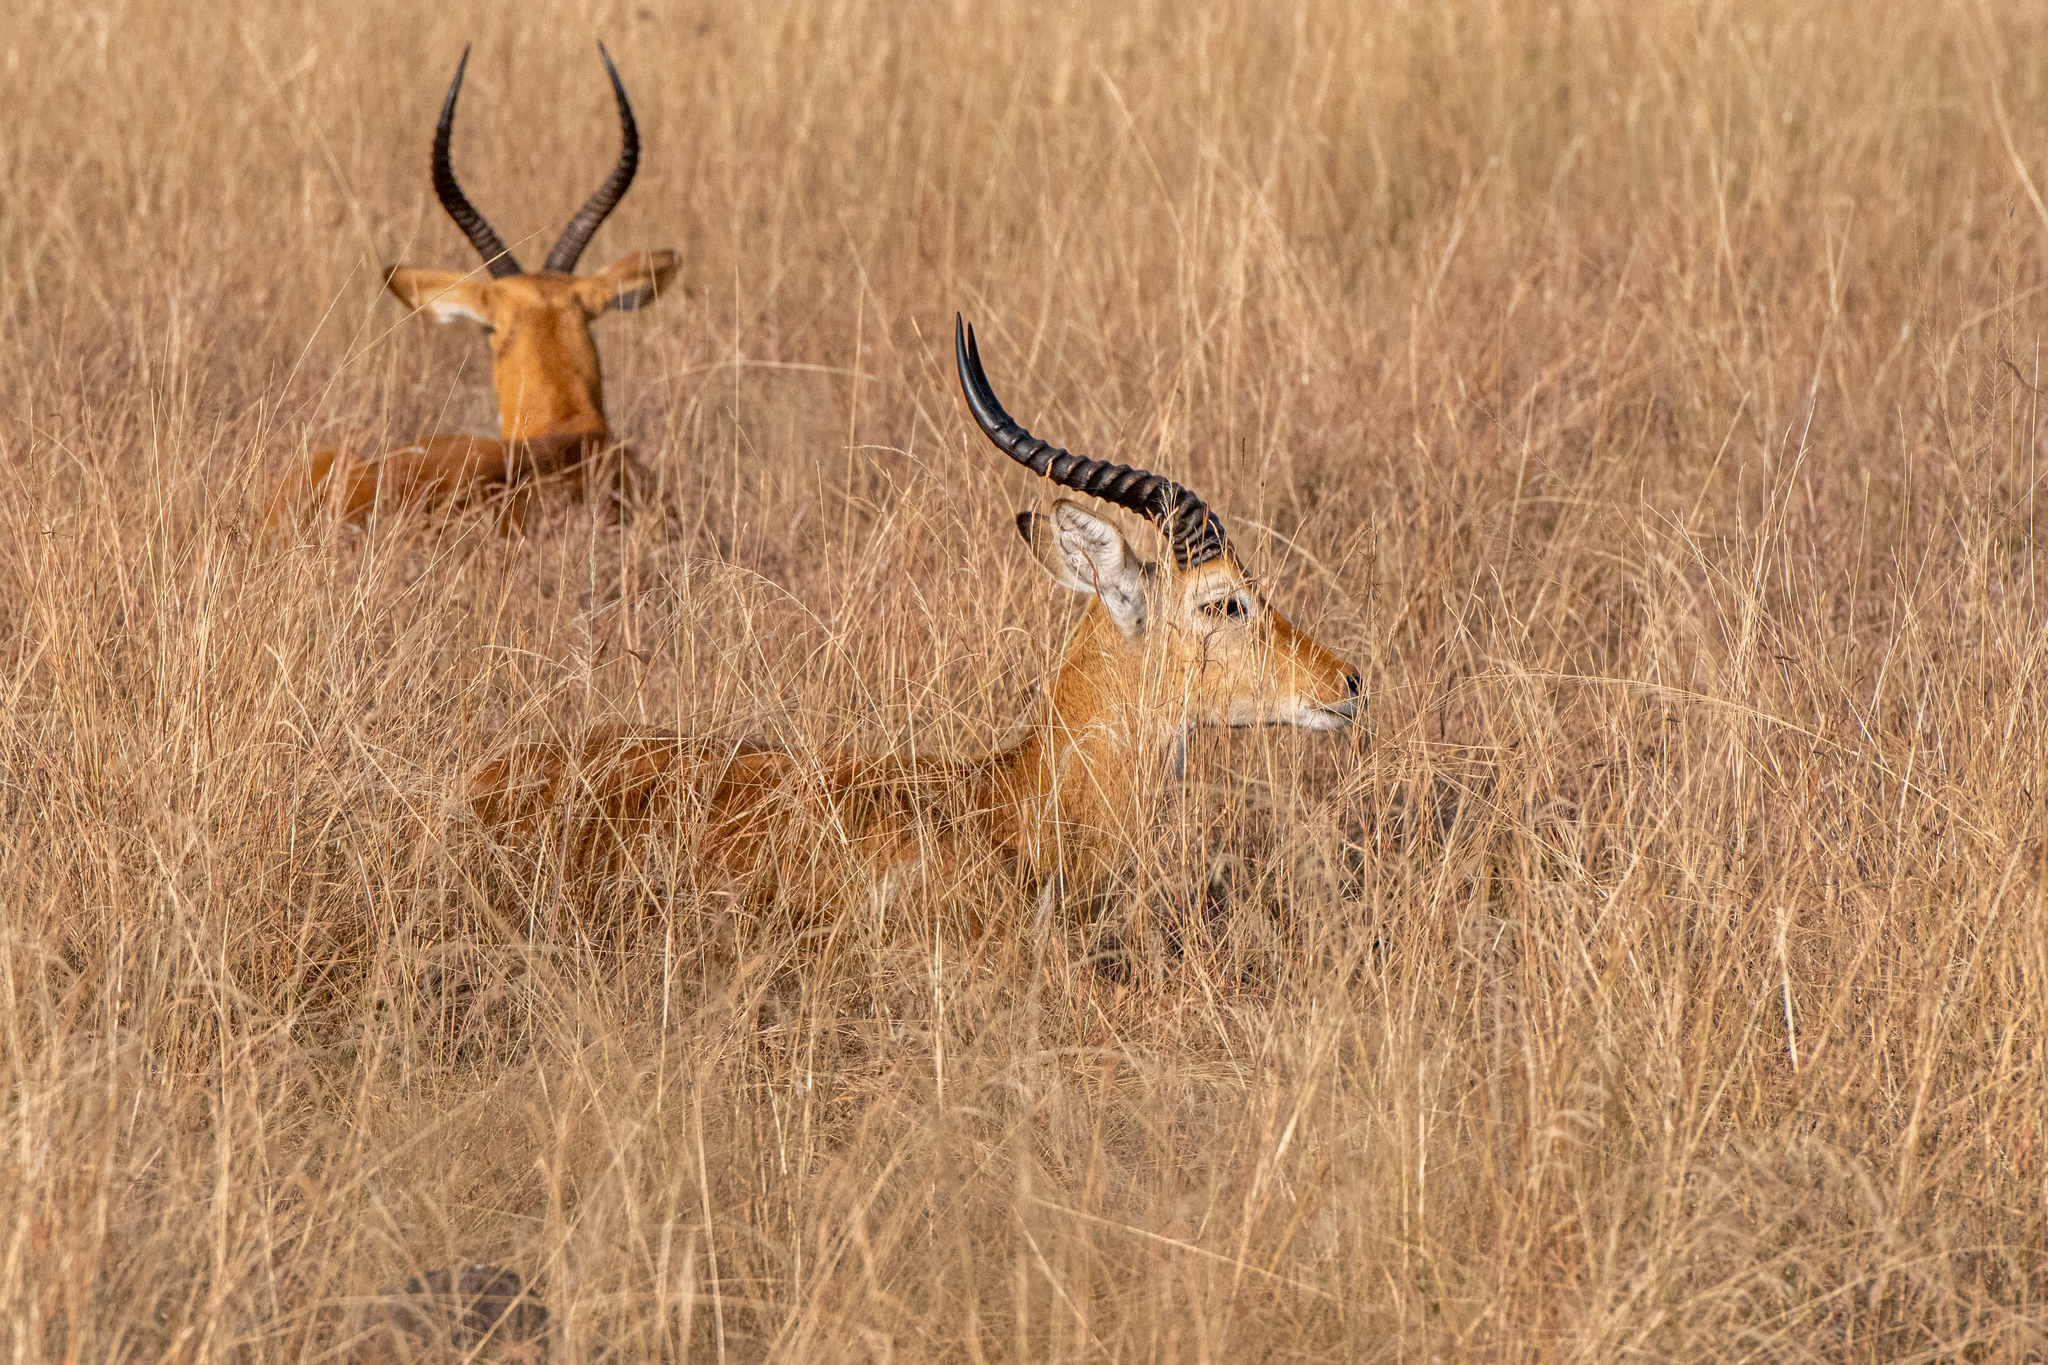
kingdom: Animalia
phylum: Chordata
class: Mammalia
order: Artiodactyla
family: Bovidae
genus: Kobus
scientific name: Kobus kob
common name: Kob
